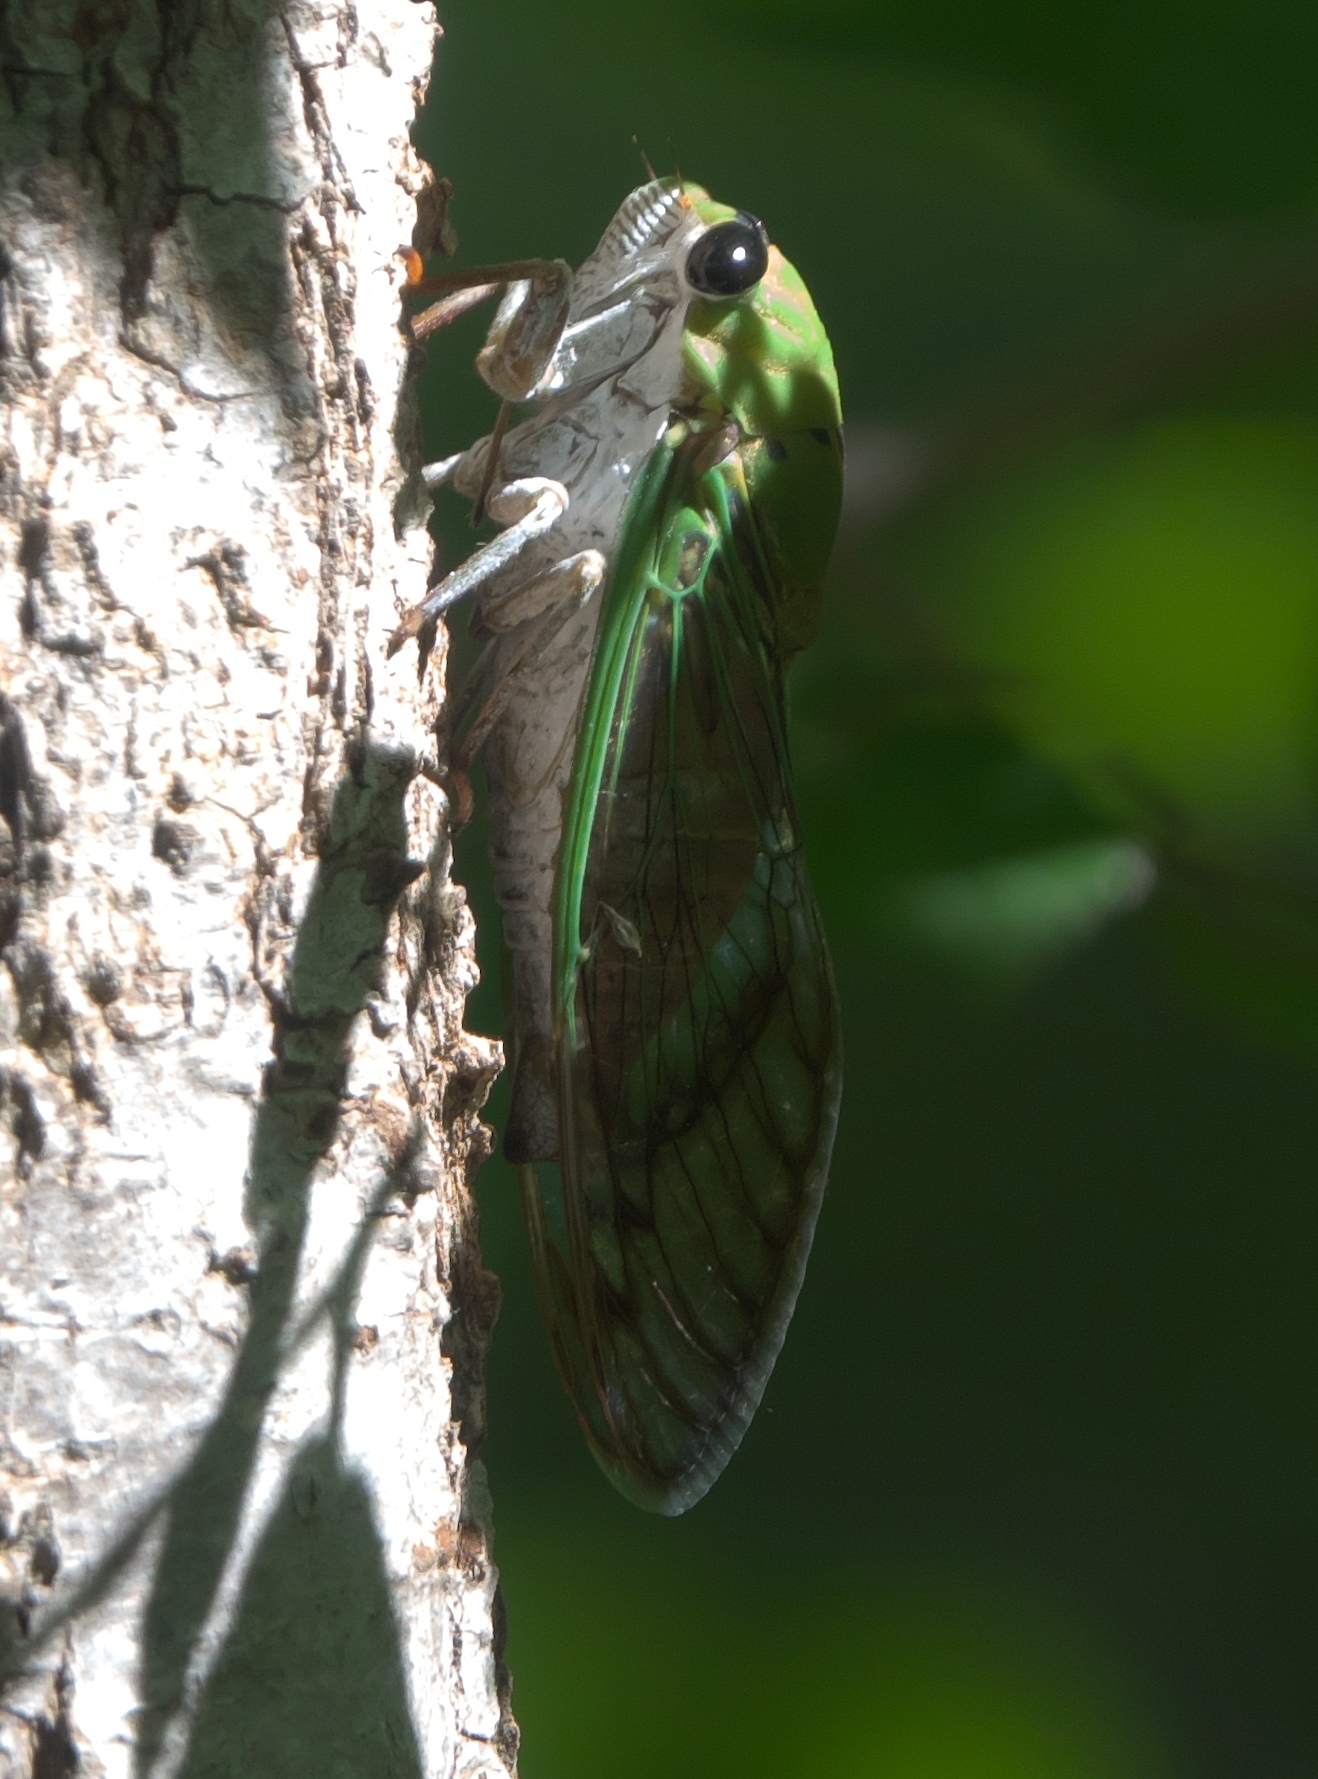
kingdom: Animalia
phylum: Arthropoda
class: Insecta
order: Hemiptera
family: Cicadidae
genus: Neotibicen
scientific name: Neotibicen superbus
